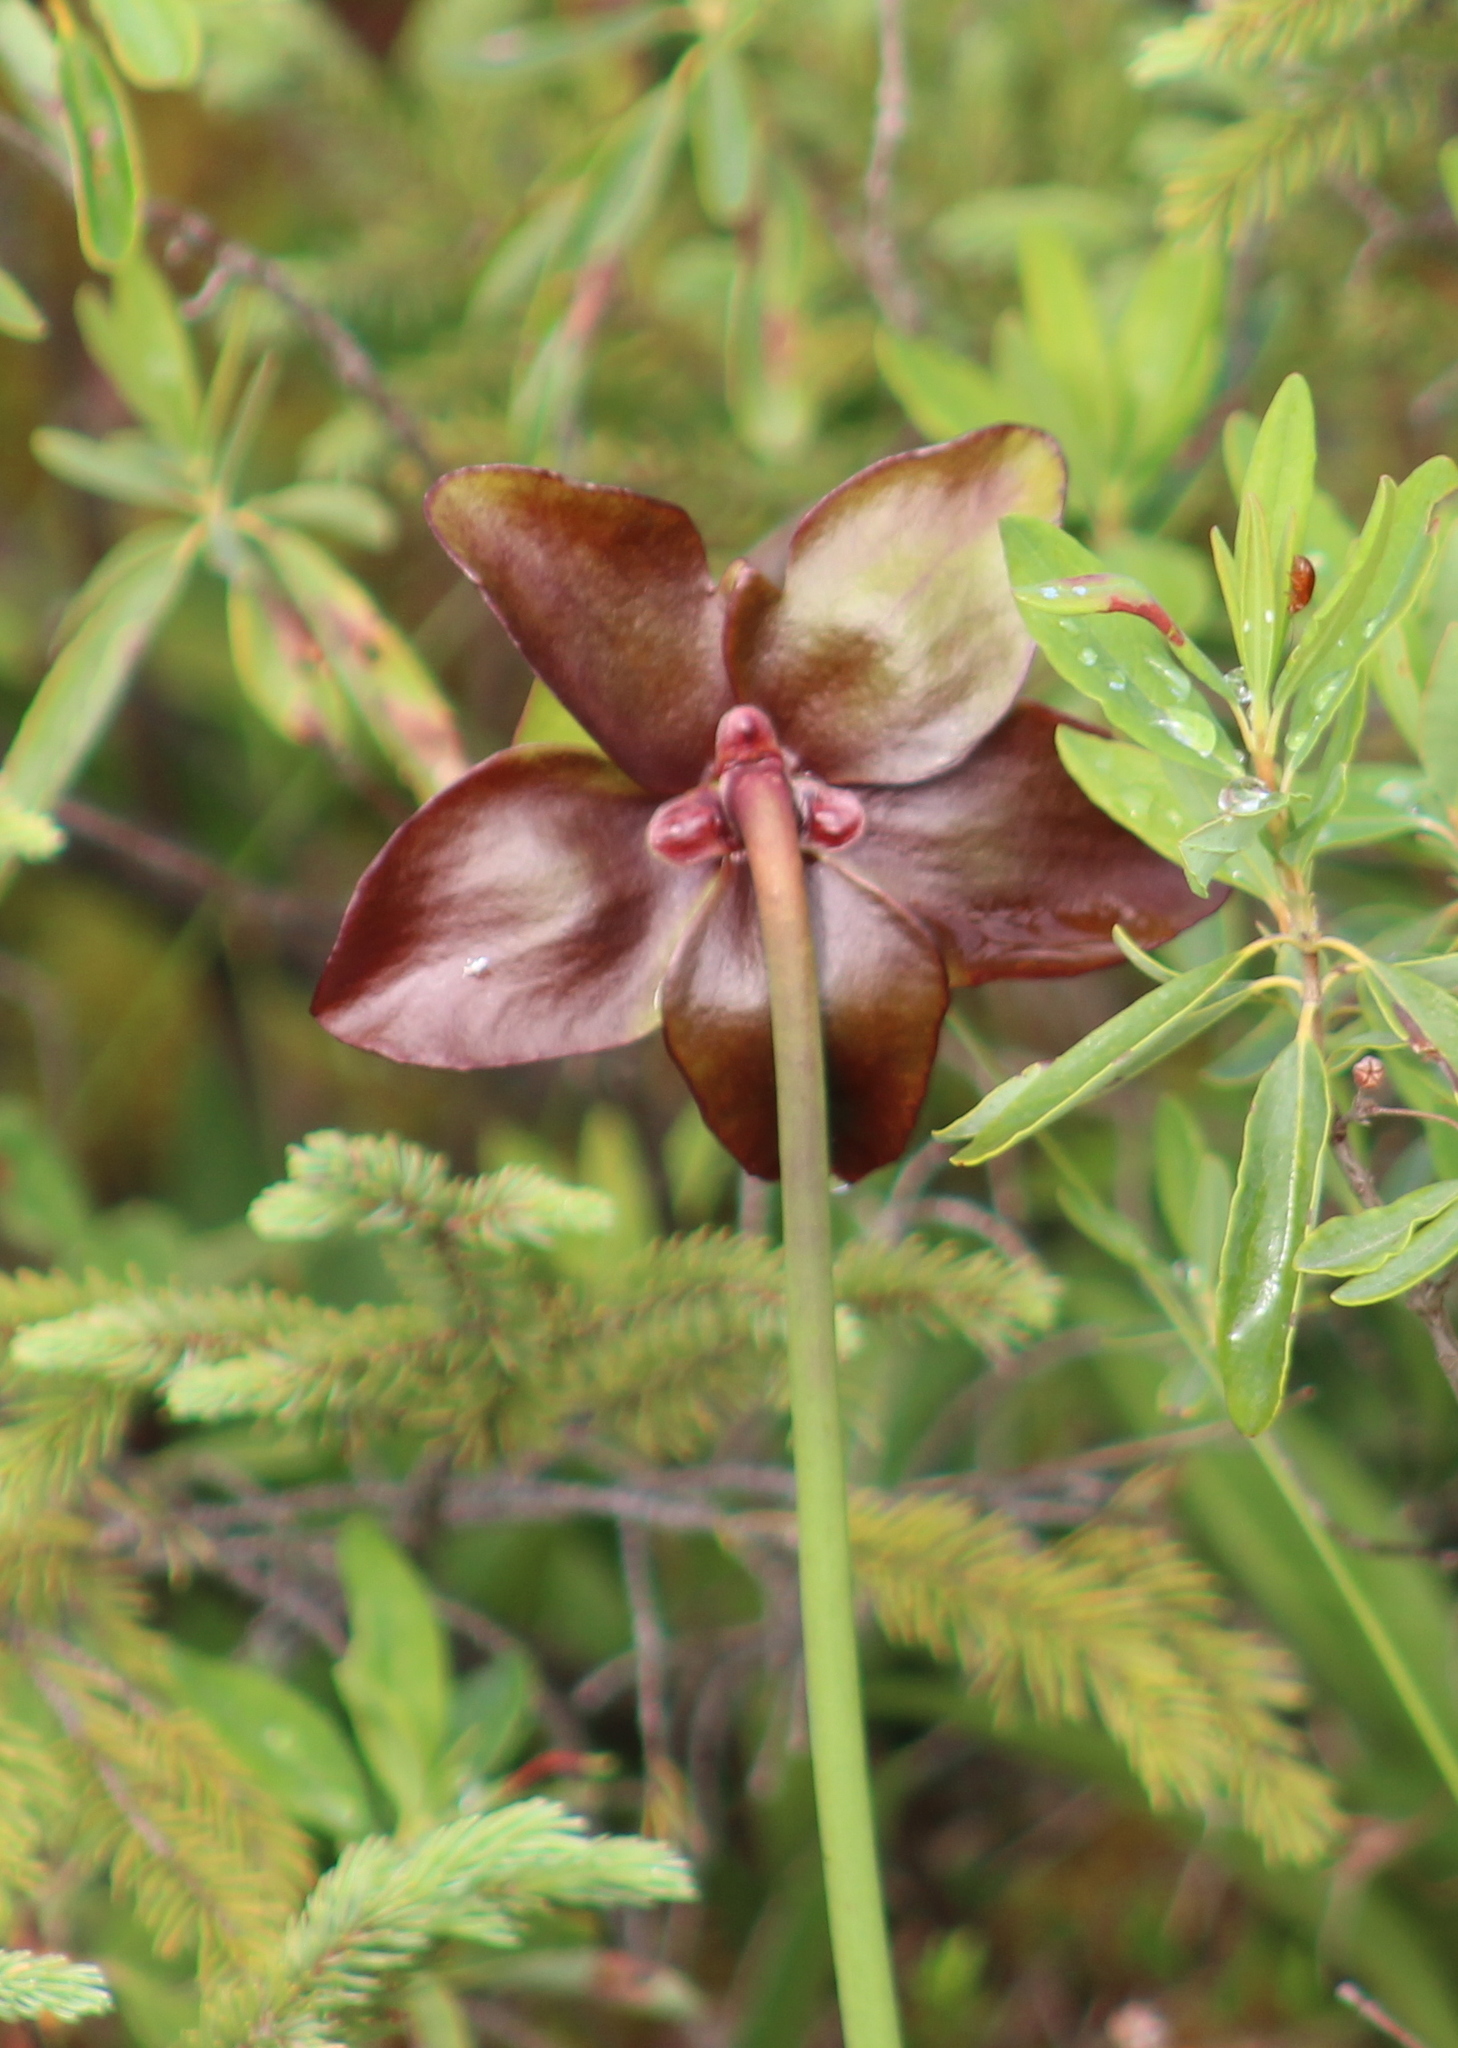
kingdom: Plantae
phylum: Tracheophyta
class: Magnoliopsida
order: Ericales
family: Sarraceniaceae
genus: Sarracenia
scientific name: Sarracenia purpurea
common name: Pitcherplant
